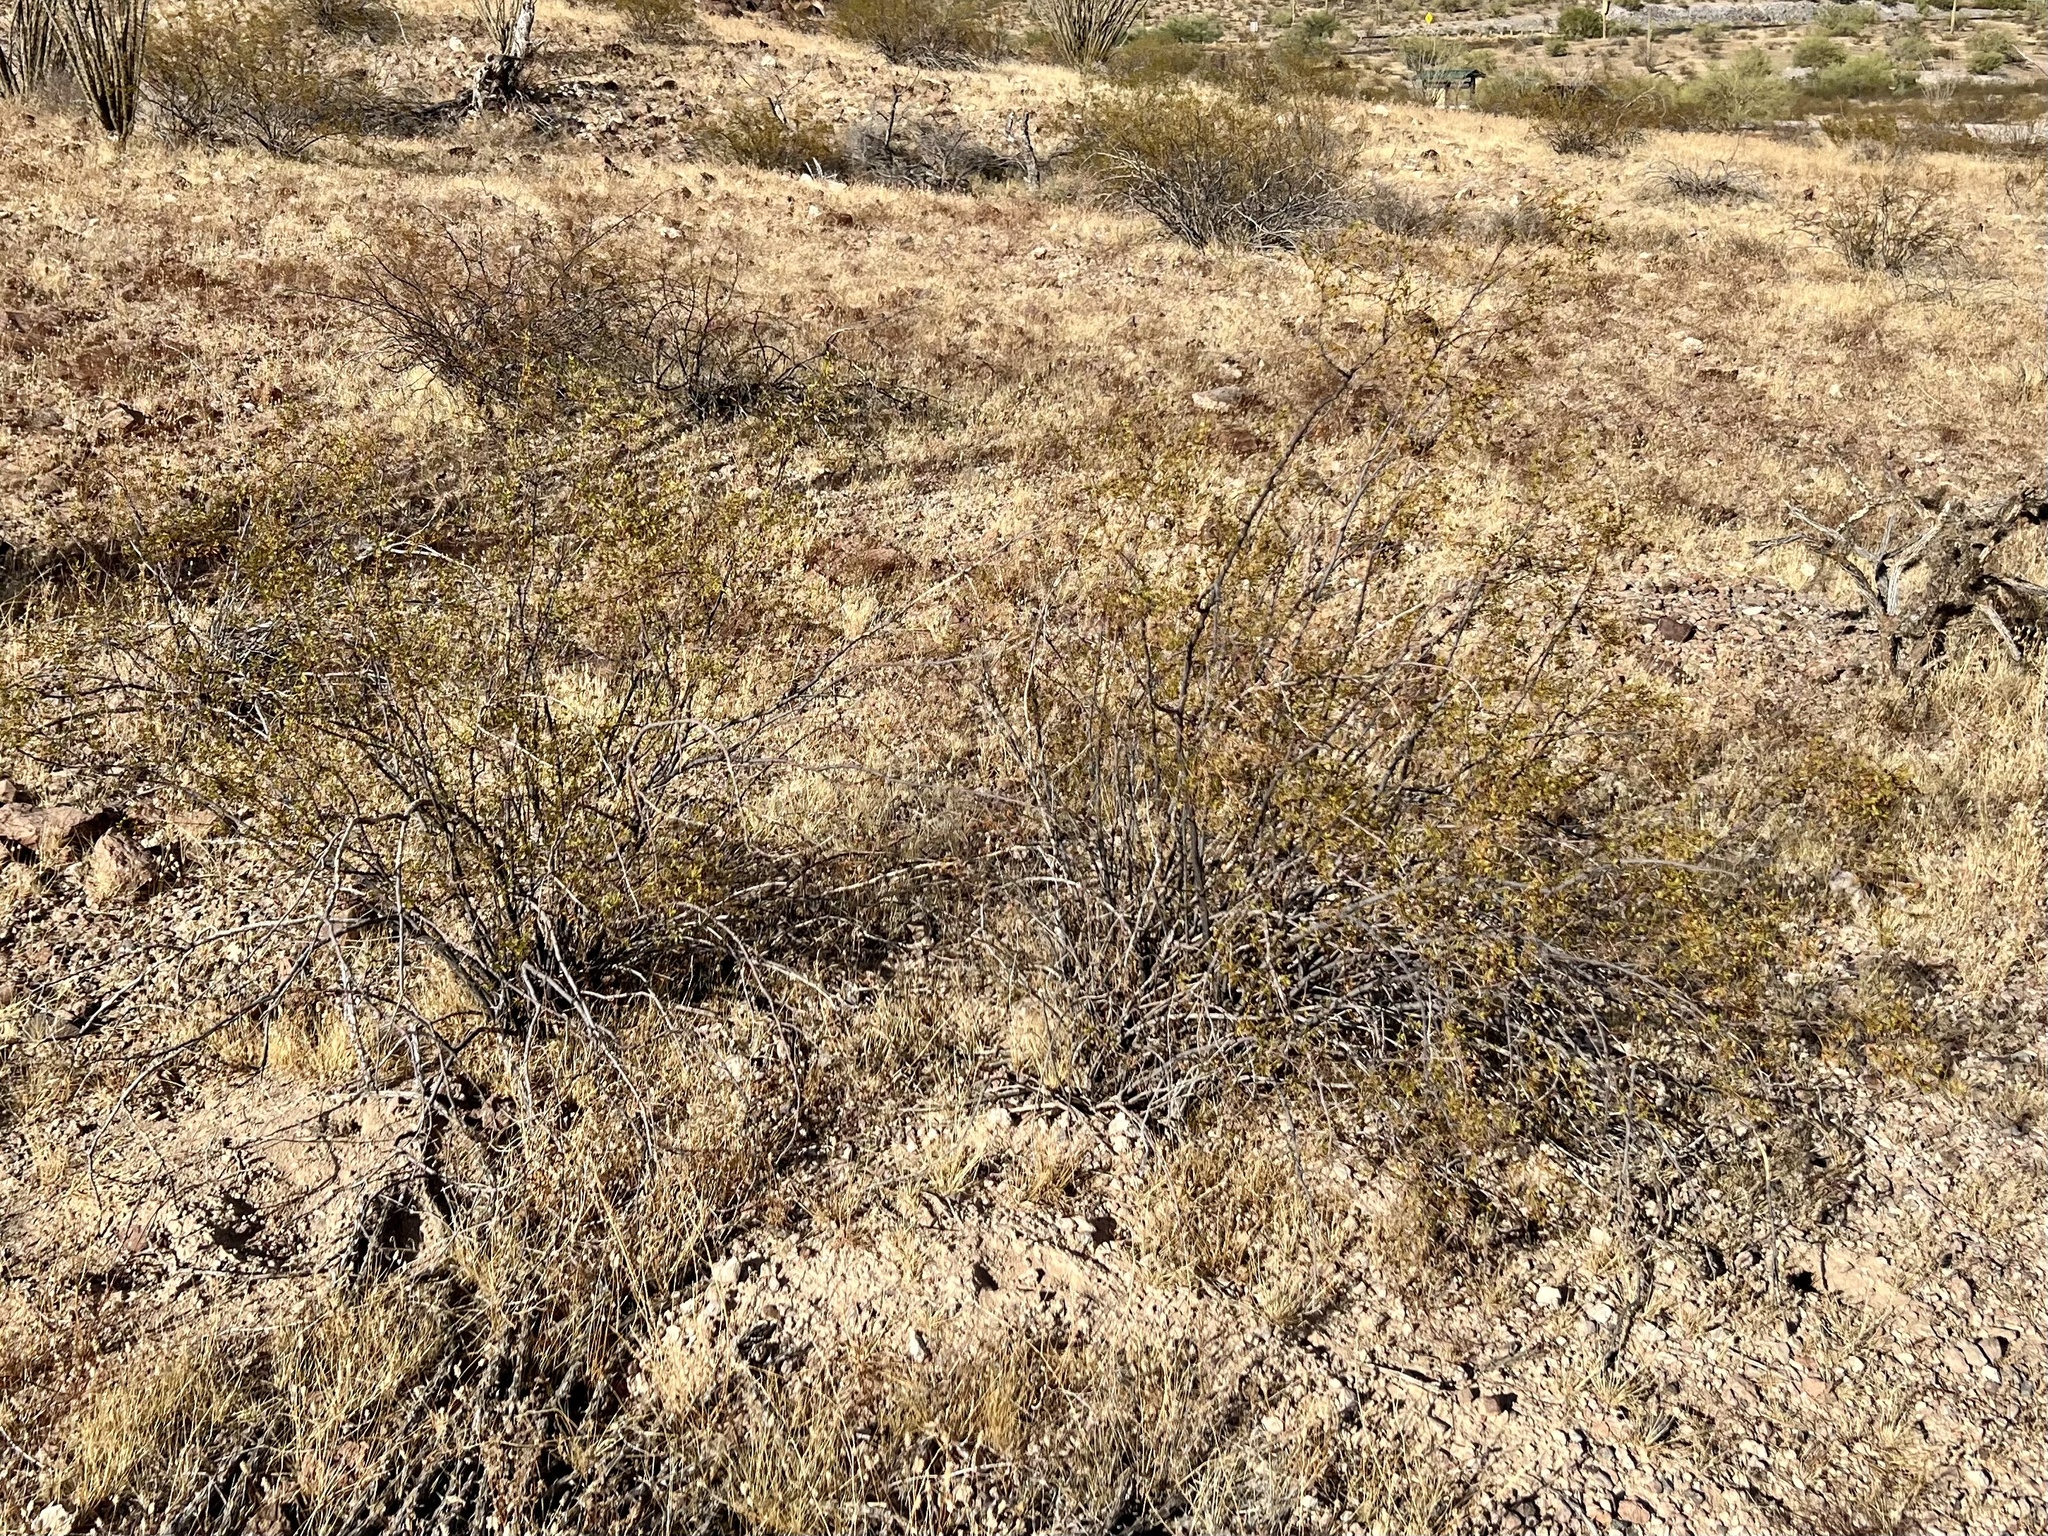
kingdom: Plantae
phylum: Tracheophyta
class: Magnoliopsida
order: Zygophyllales
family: Zygophyllaceae
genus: Larrea
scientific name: Larrea tridentata
